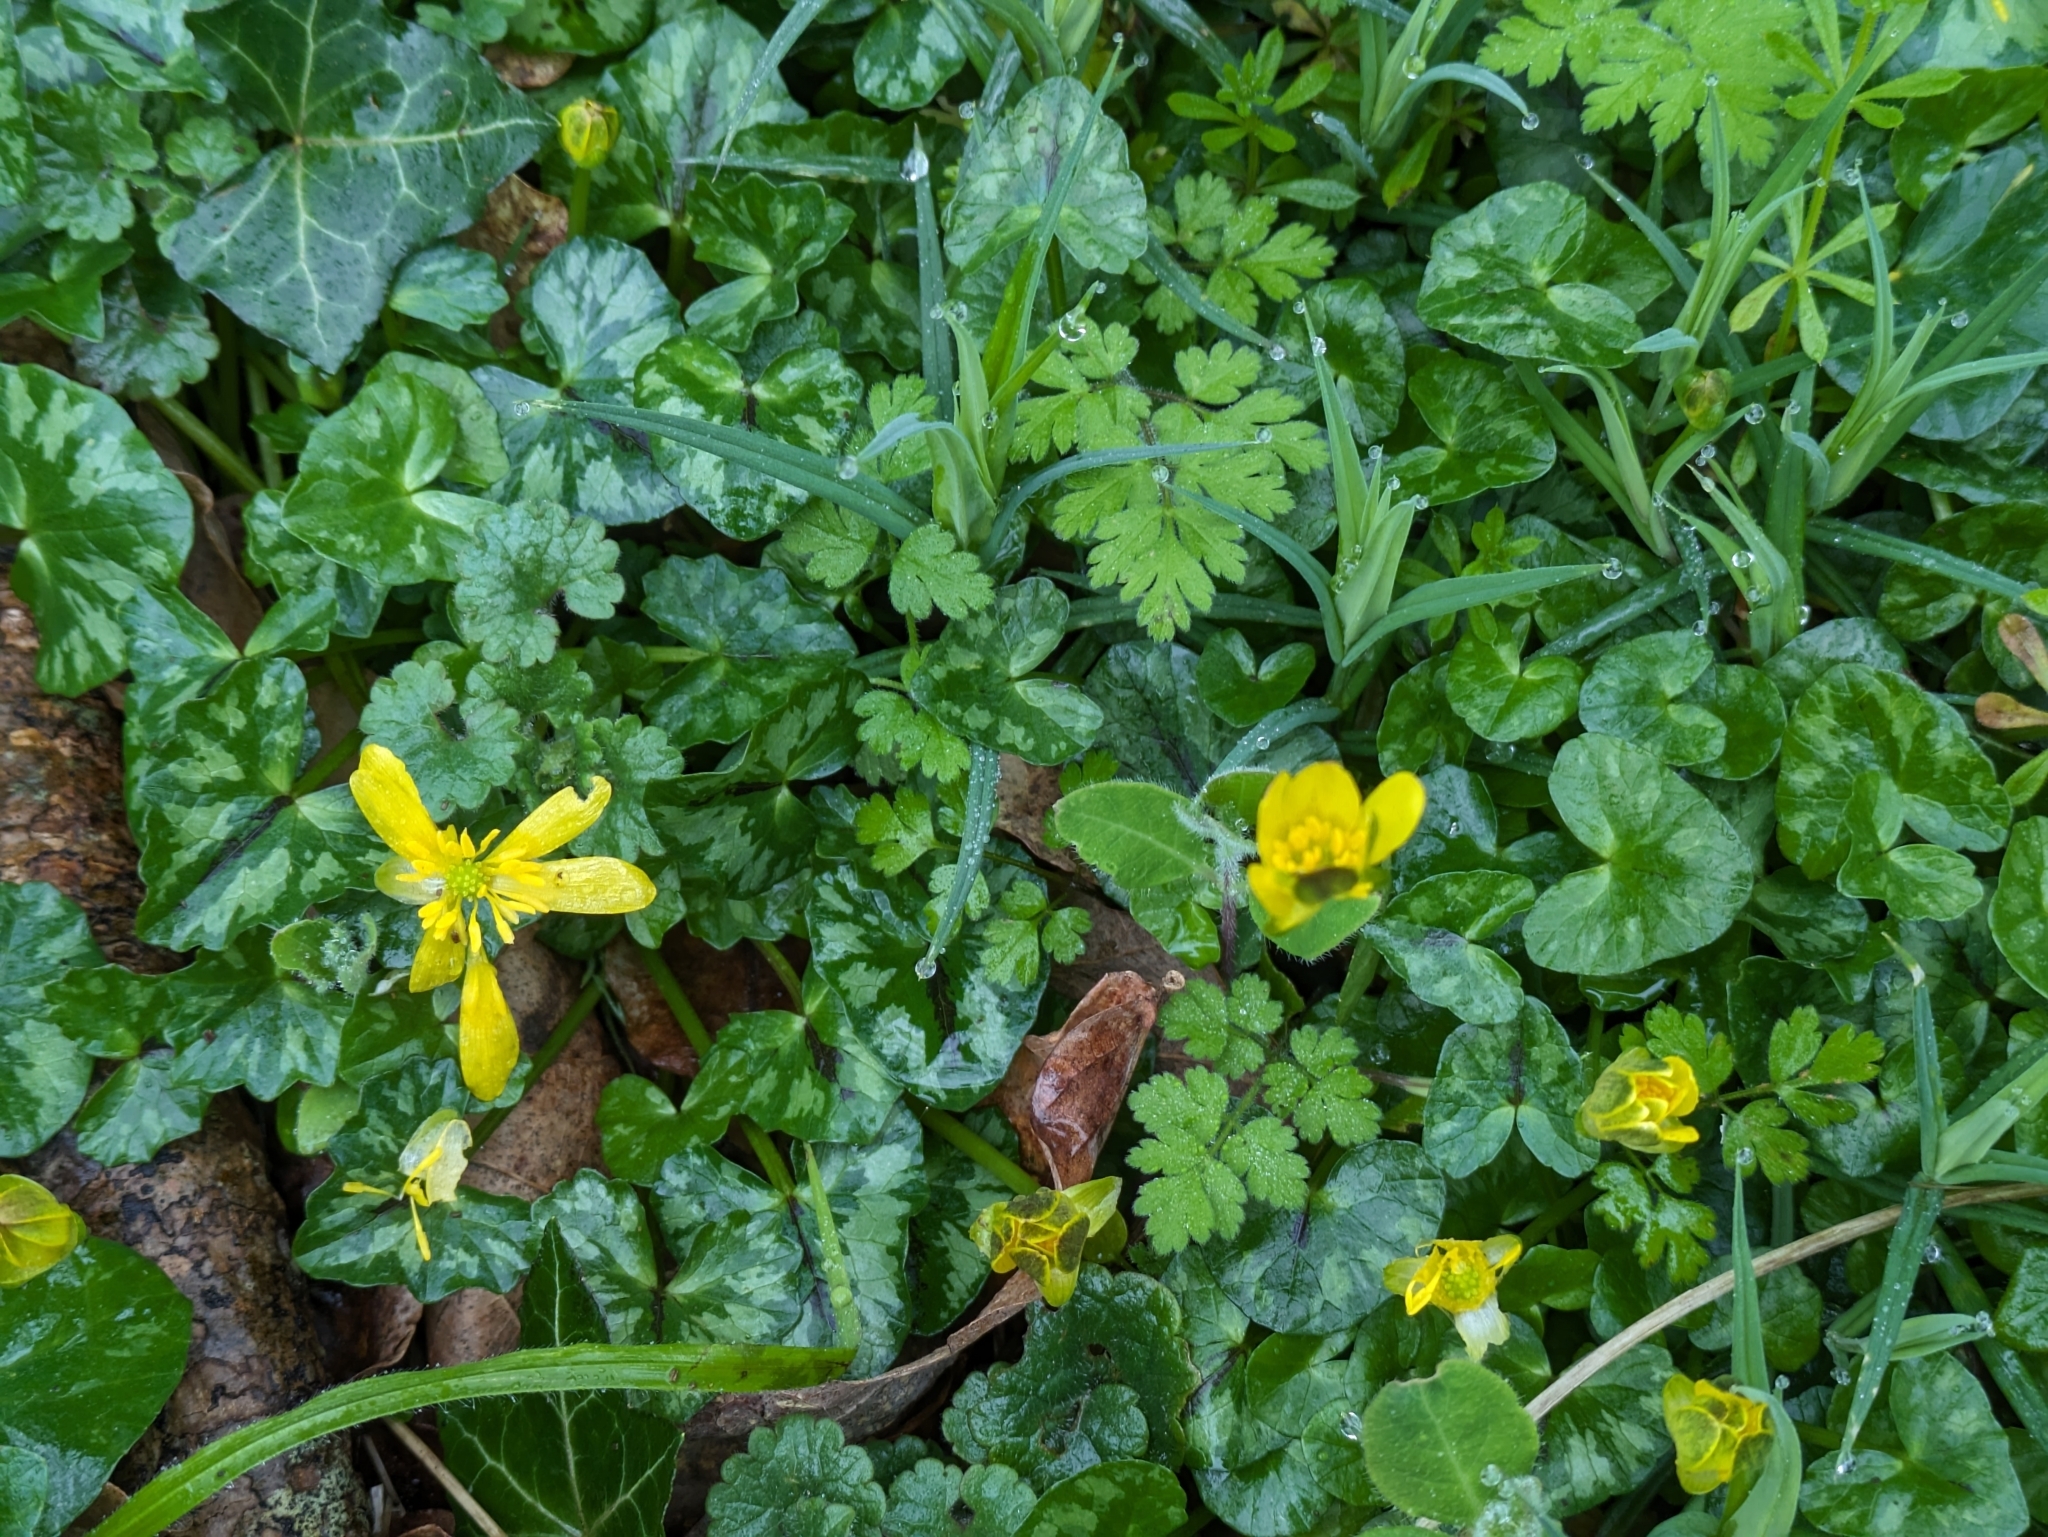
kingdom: Plantae
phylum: Tracheophyta
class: Magnoliopsida
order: Ranunculales
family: Ranunculaceae
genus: Ficaria
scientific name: Ficaria verna
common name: Lesser celandine
